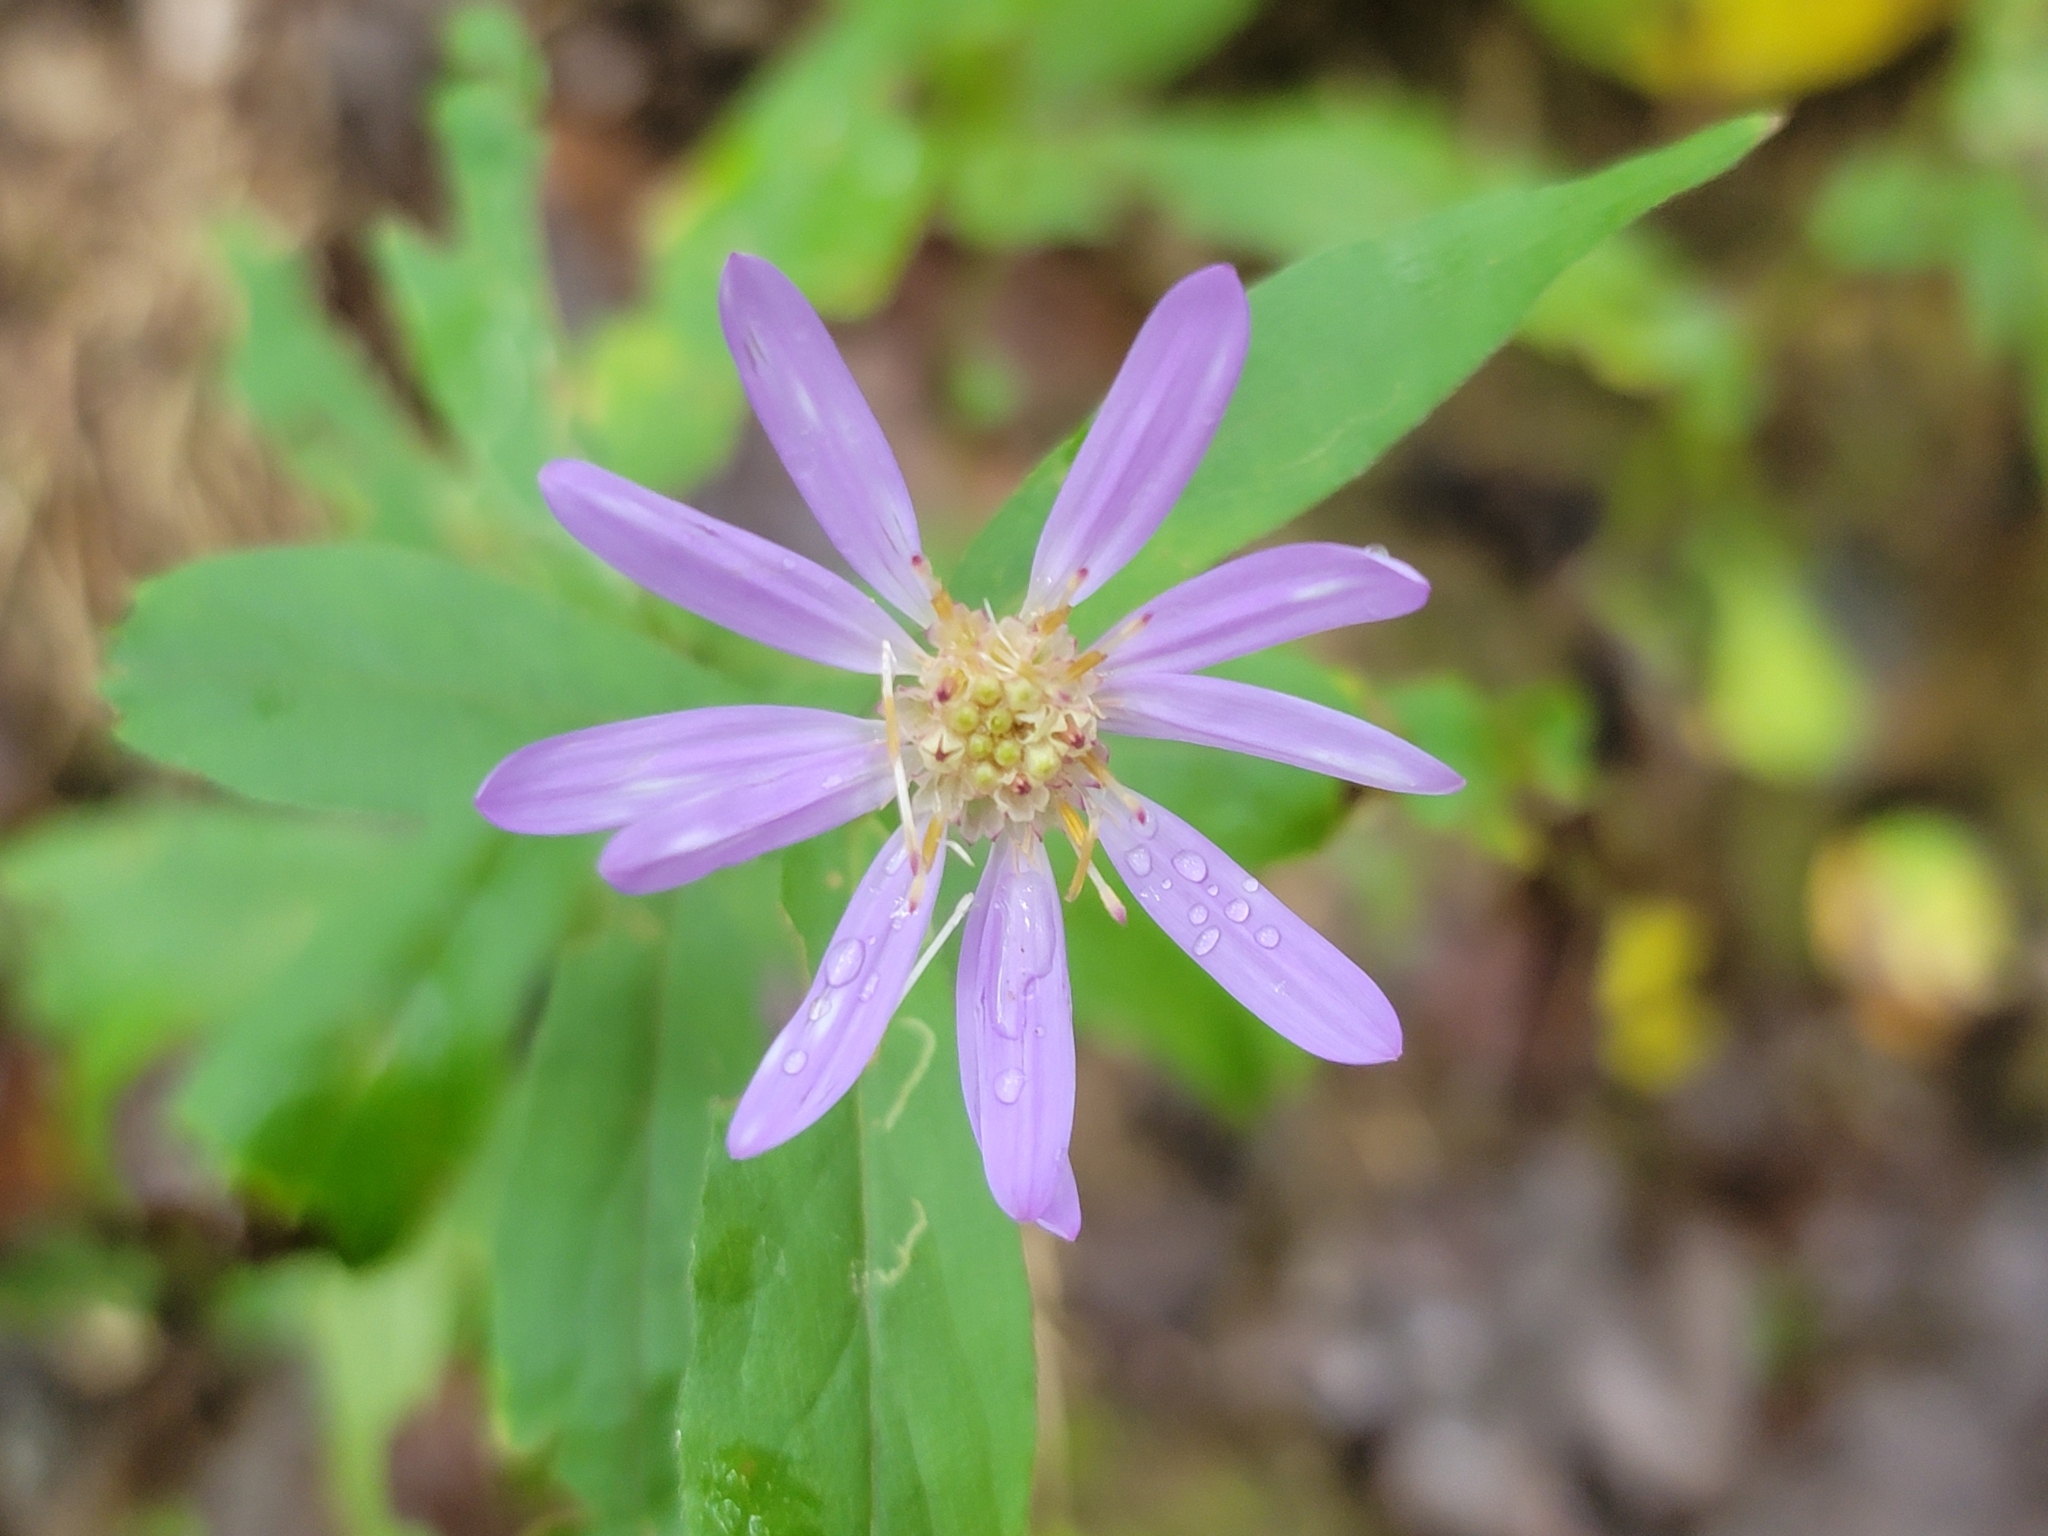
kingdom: Plantae
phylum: Tracheophyta
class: Magnoliopsida
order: Asterales
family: Asteraceae
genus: Symphyotrichum
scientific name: Symphyotrichum phlogifolium
